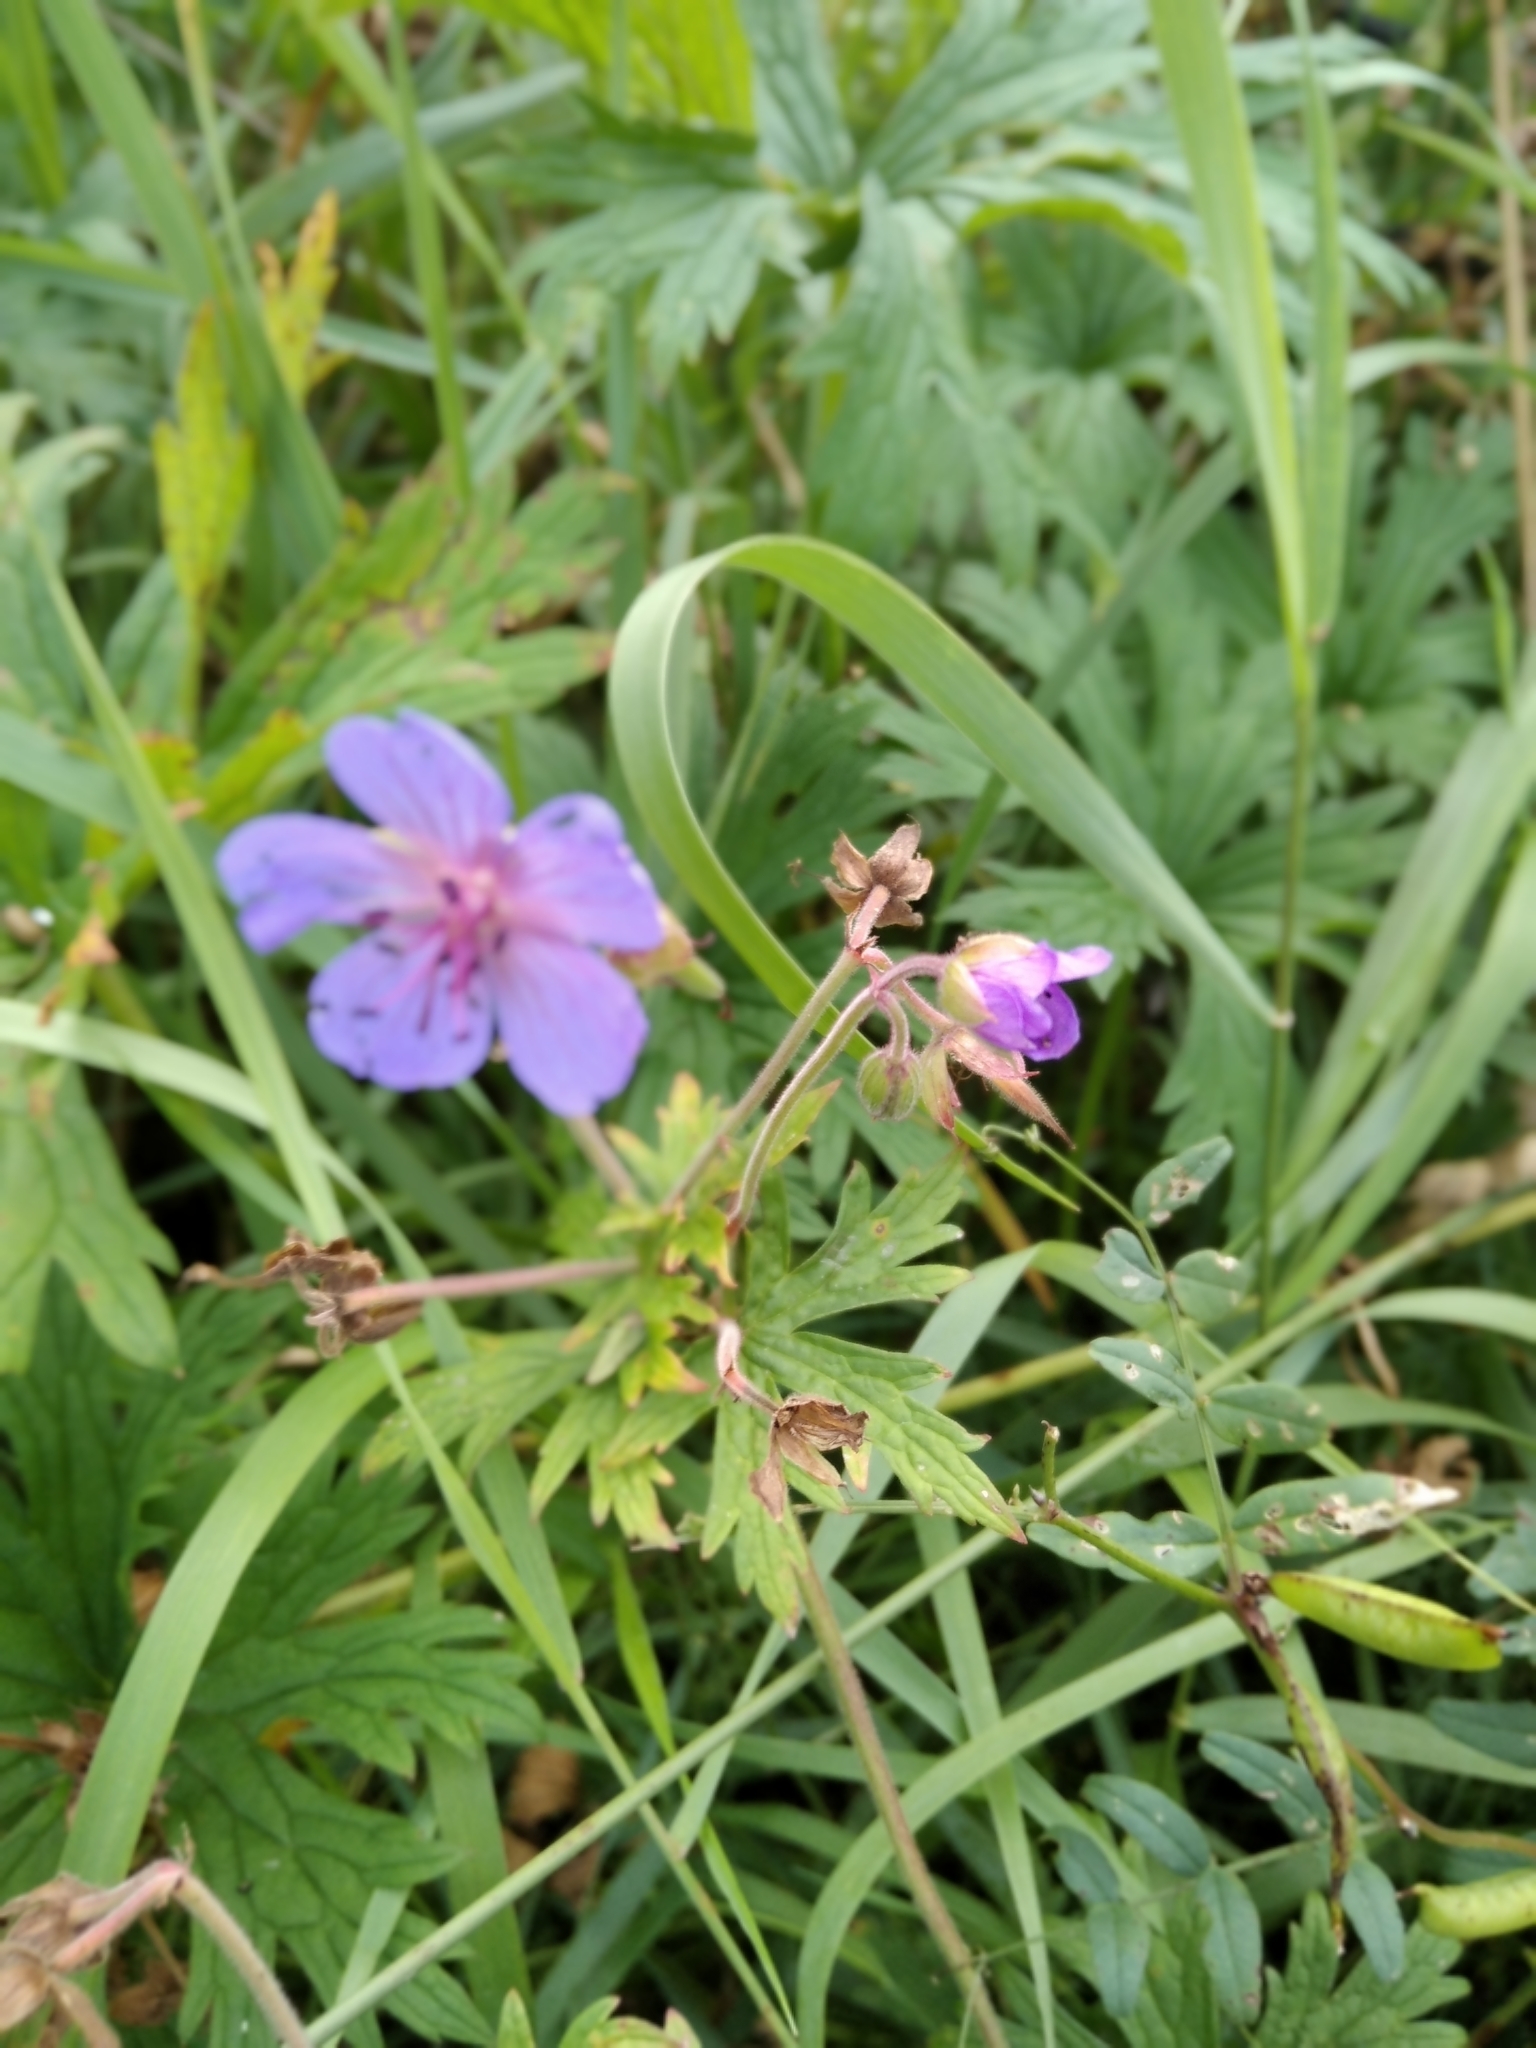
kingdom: Plantae
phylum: Tracheophyta
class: Magnoliopsida
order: Geraniales
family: Geraniaceae
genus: Geranium
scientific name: Geranium pratense
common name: Meadow crane's-bill
